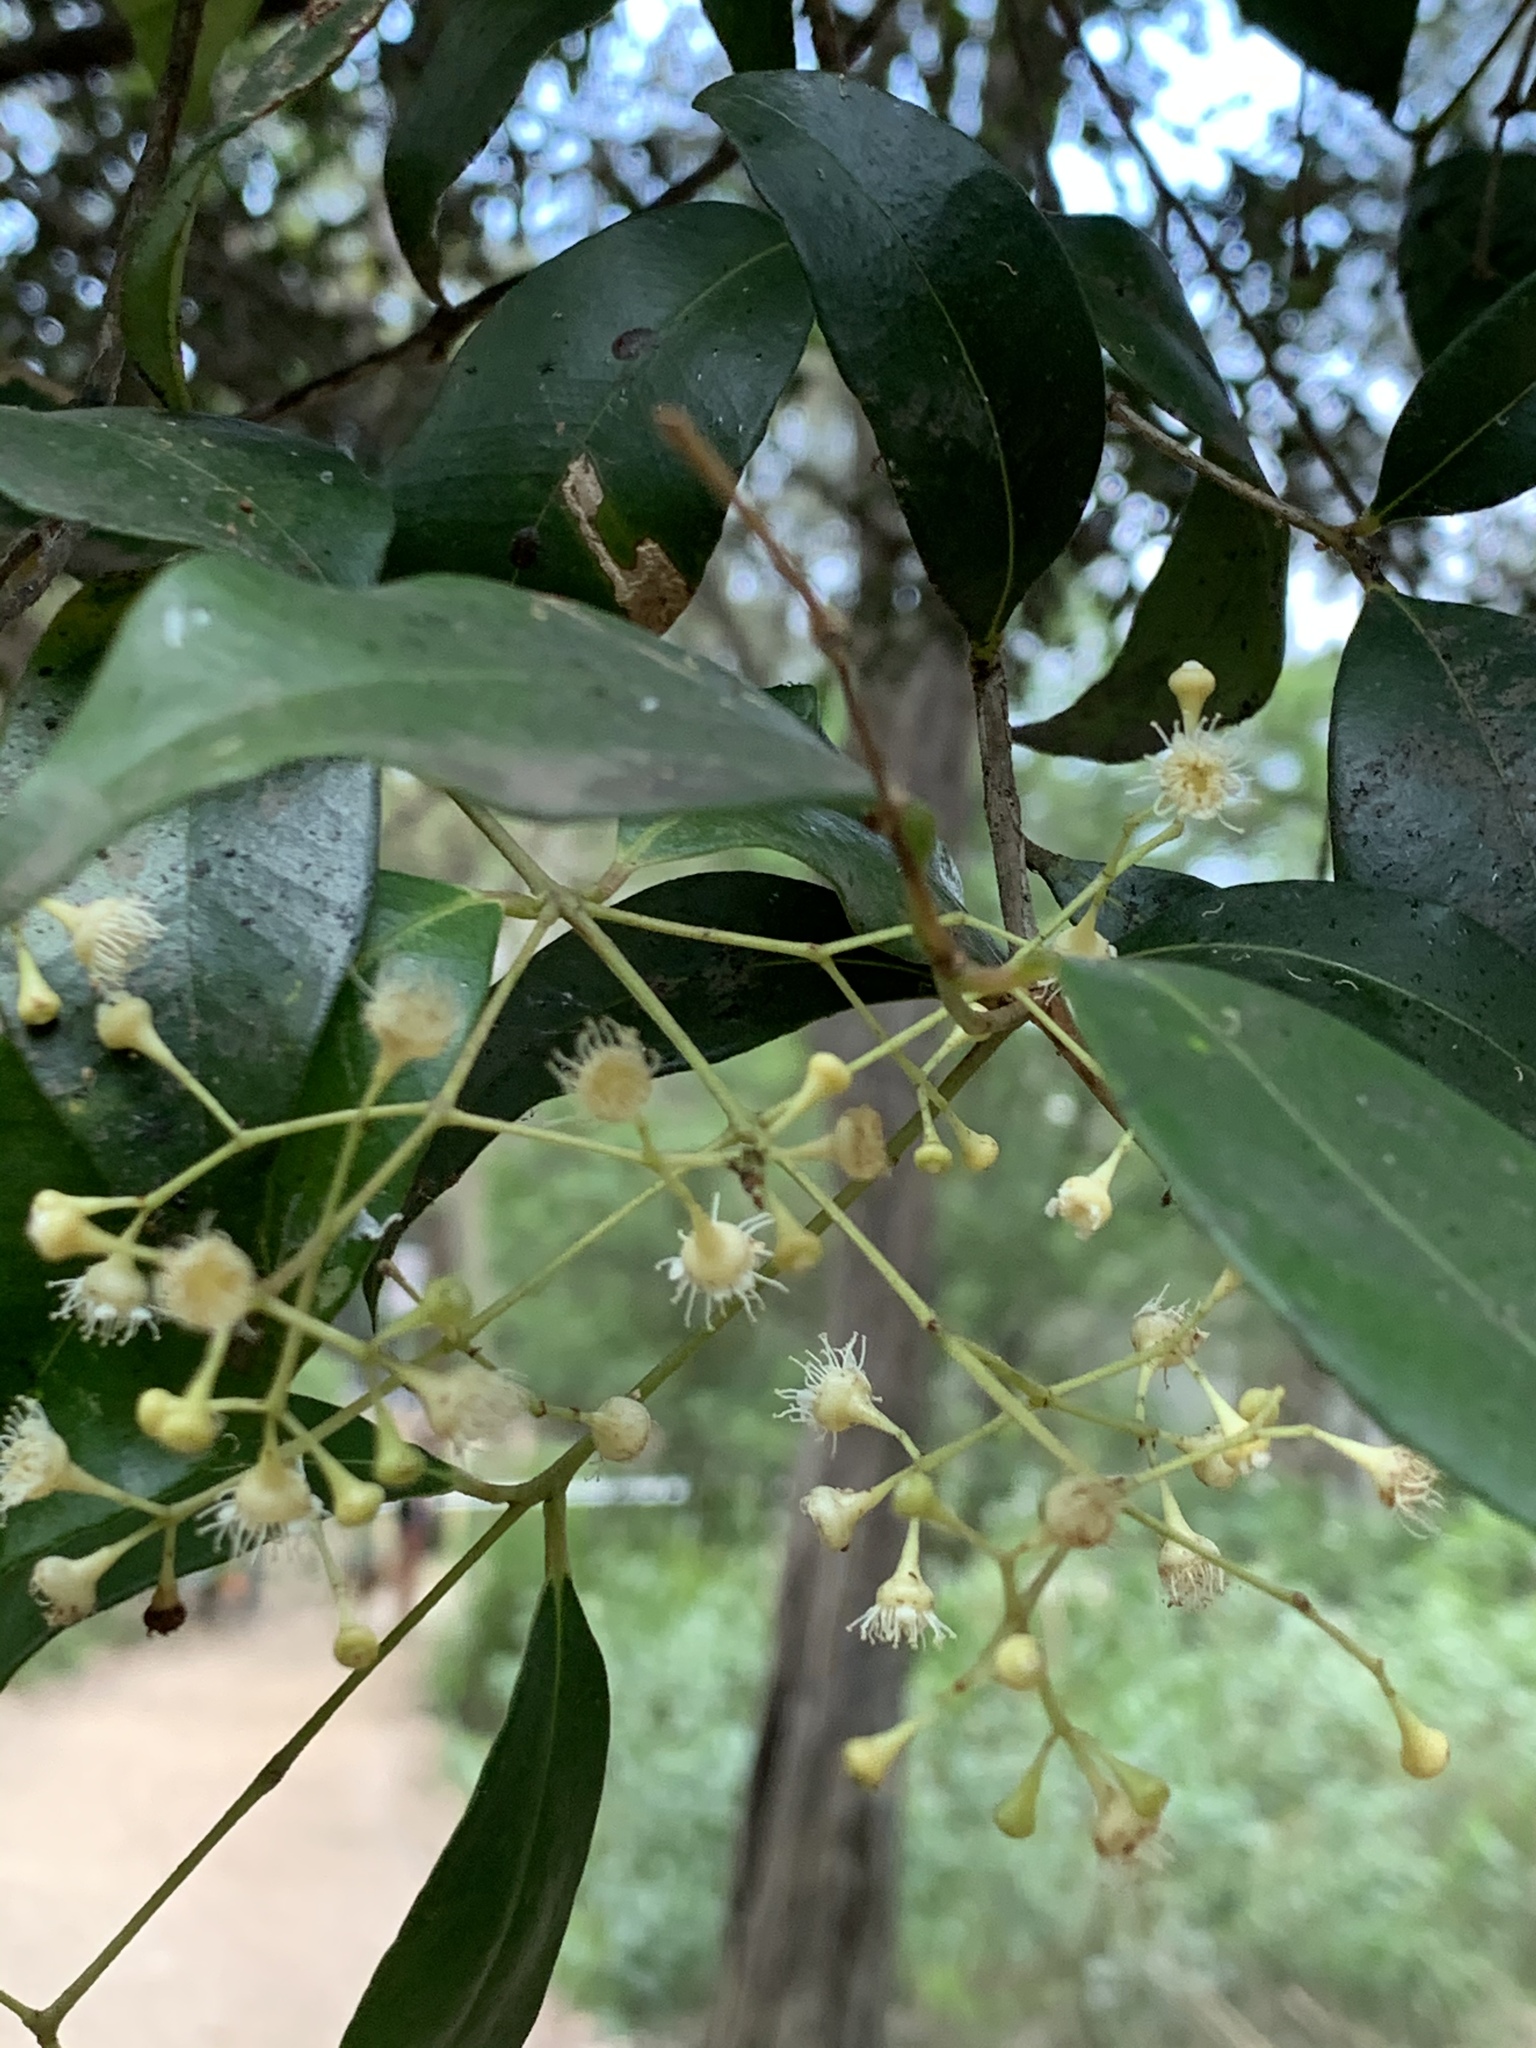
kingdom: Plantae
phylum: Tracheophyta
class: Magnoliopsida
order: Myrtales
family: Myrtaceae
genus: Syzygium
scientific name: Syzygium smithii
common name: Lilly-pilly
